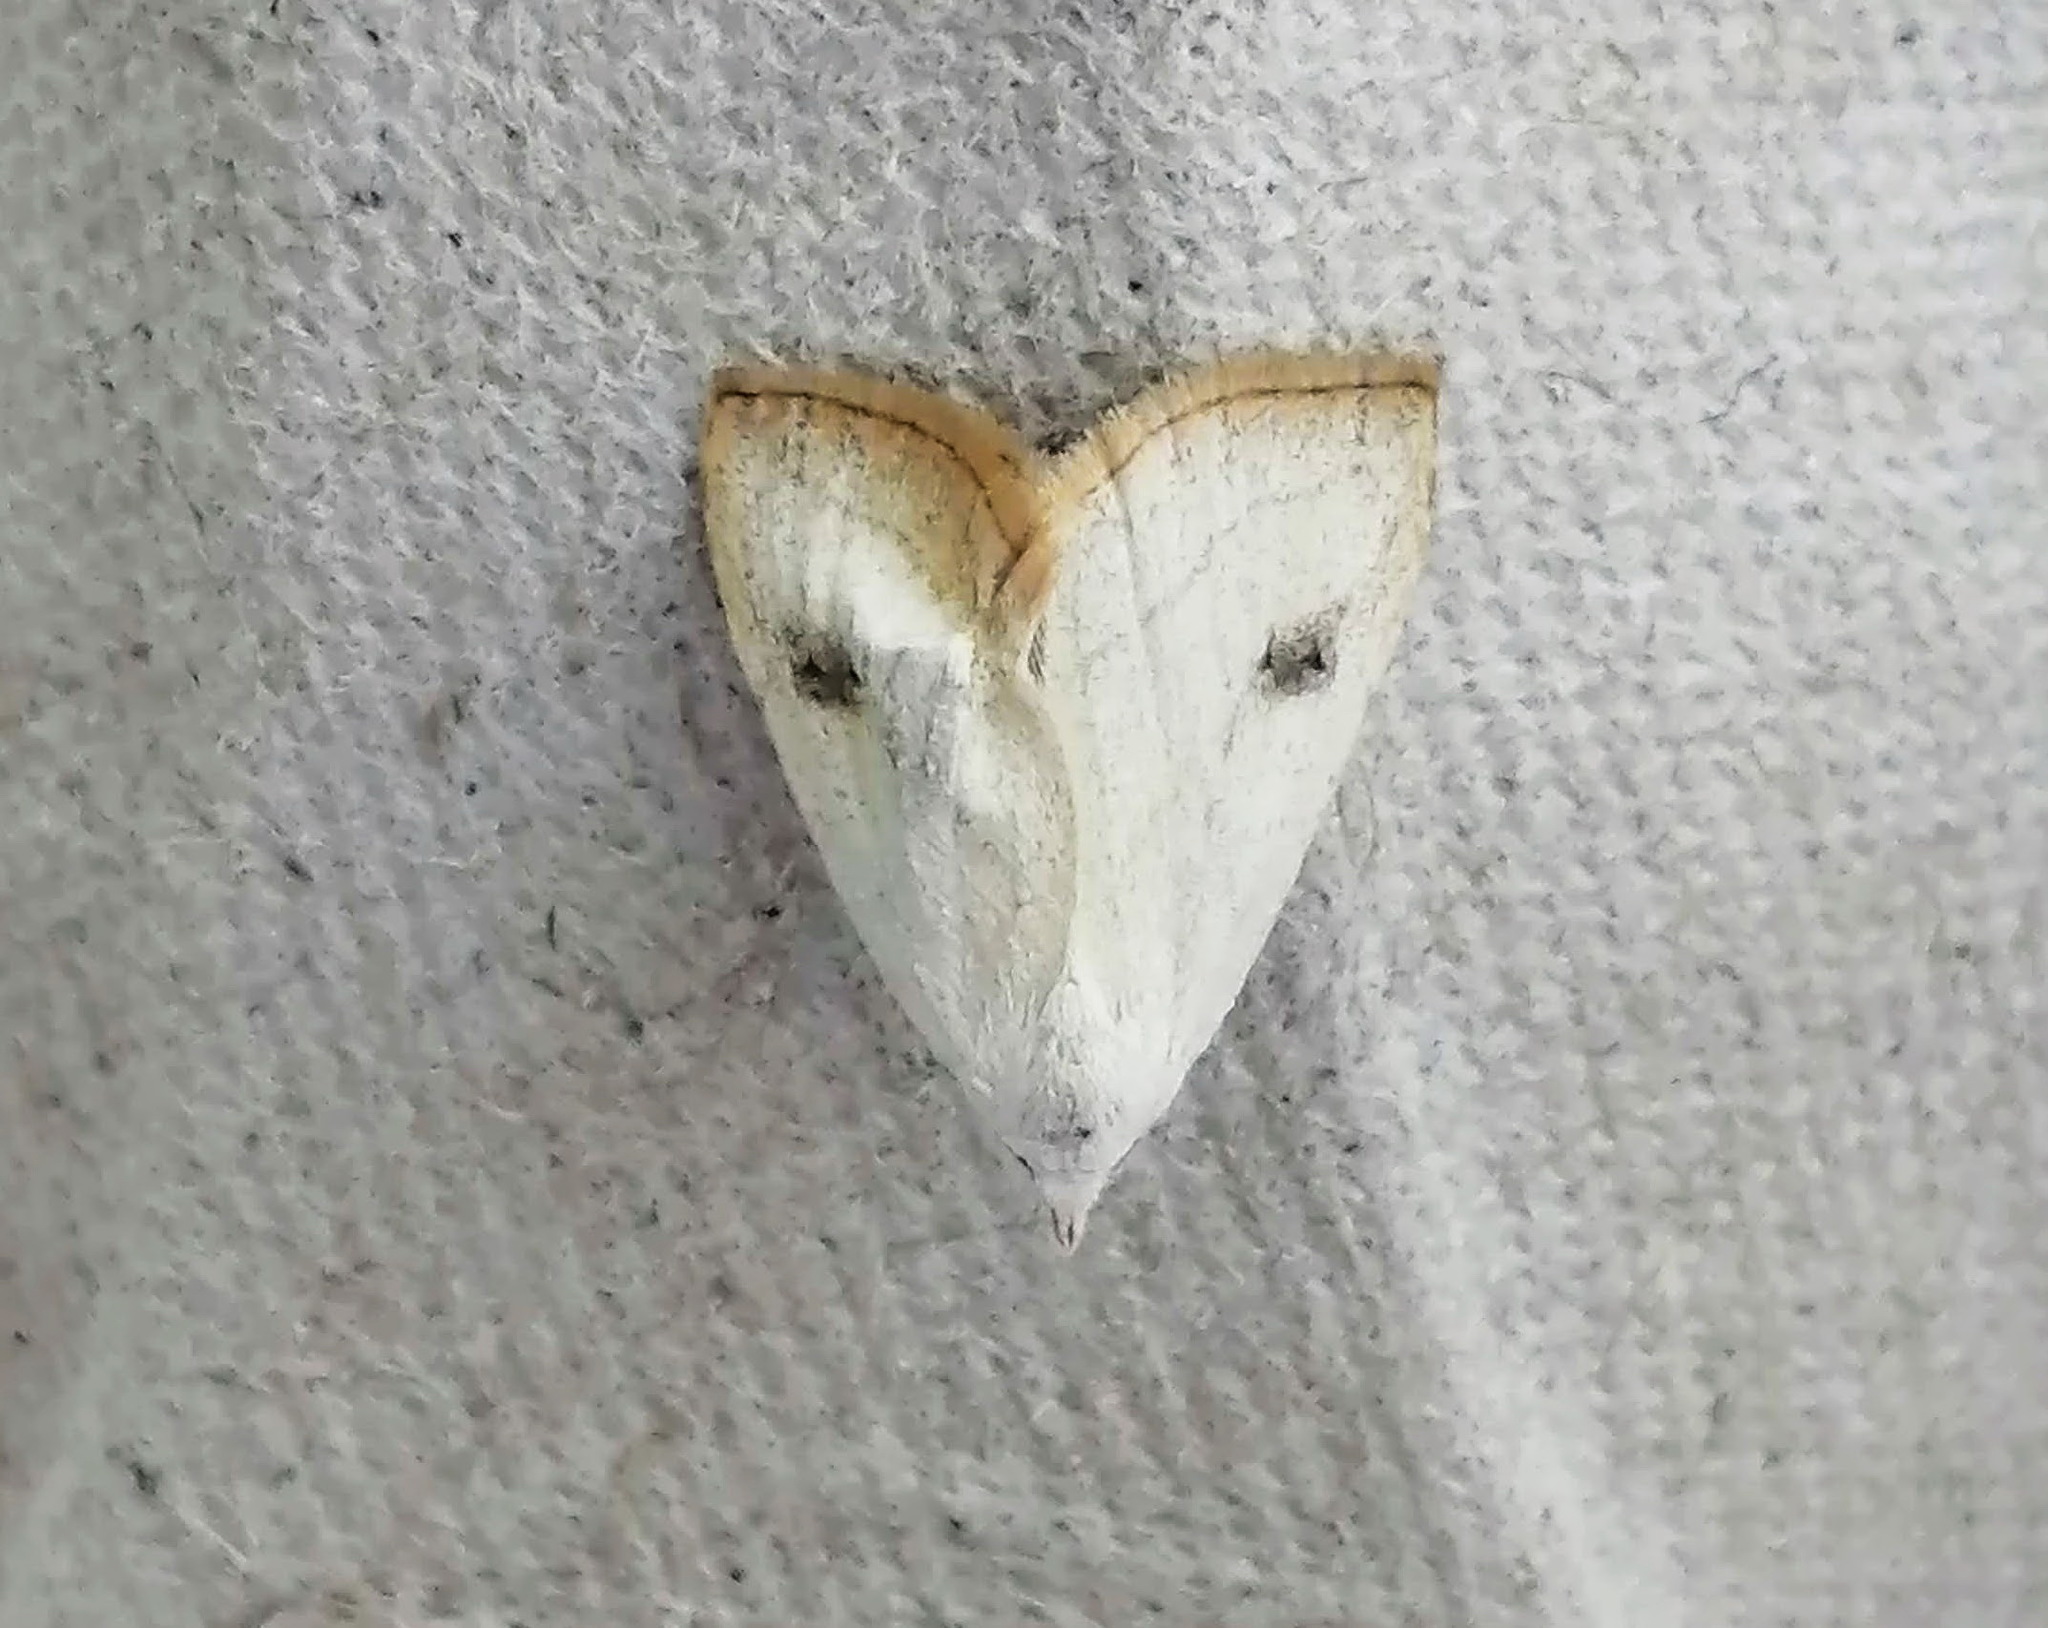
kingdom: Animalia
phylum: Arthropoda
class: Insecta
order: Lepidoptera
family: Erebidae
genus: Rivula
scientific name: Rivula propinqualis
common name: Spotted grass moth
